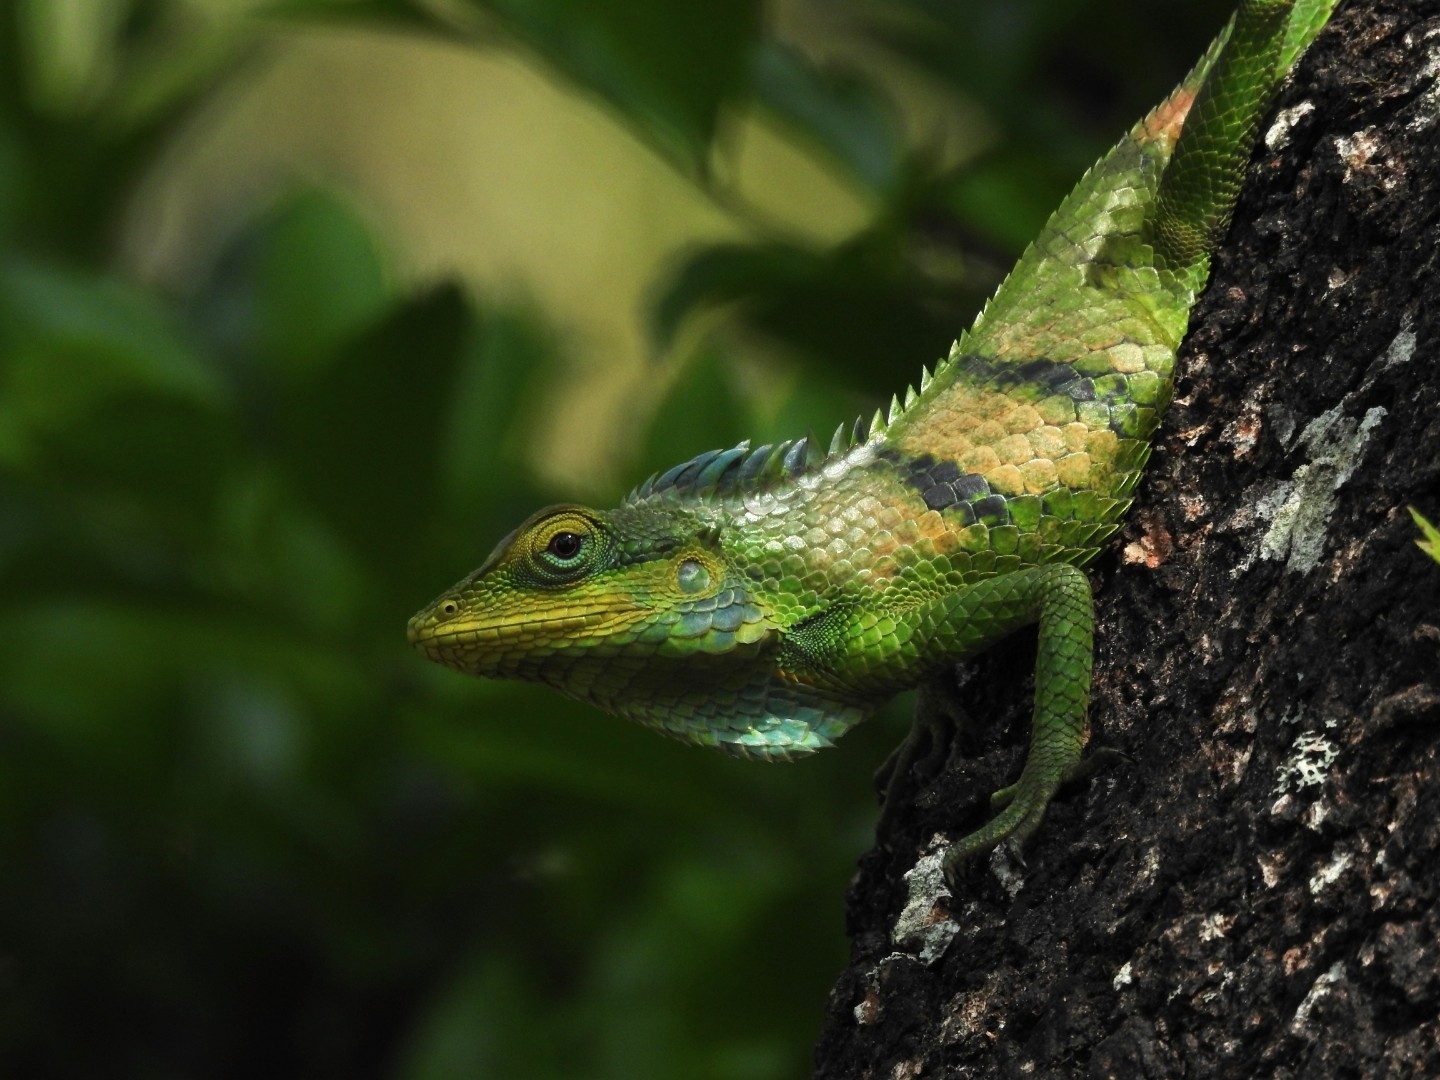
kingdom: Animalia
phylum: Chordata
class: Squamata
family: Agamidae
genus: Calotes
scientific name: Calotes grandisquamis
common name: Big scaled variable lizard
